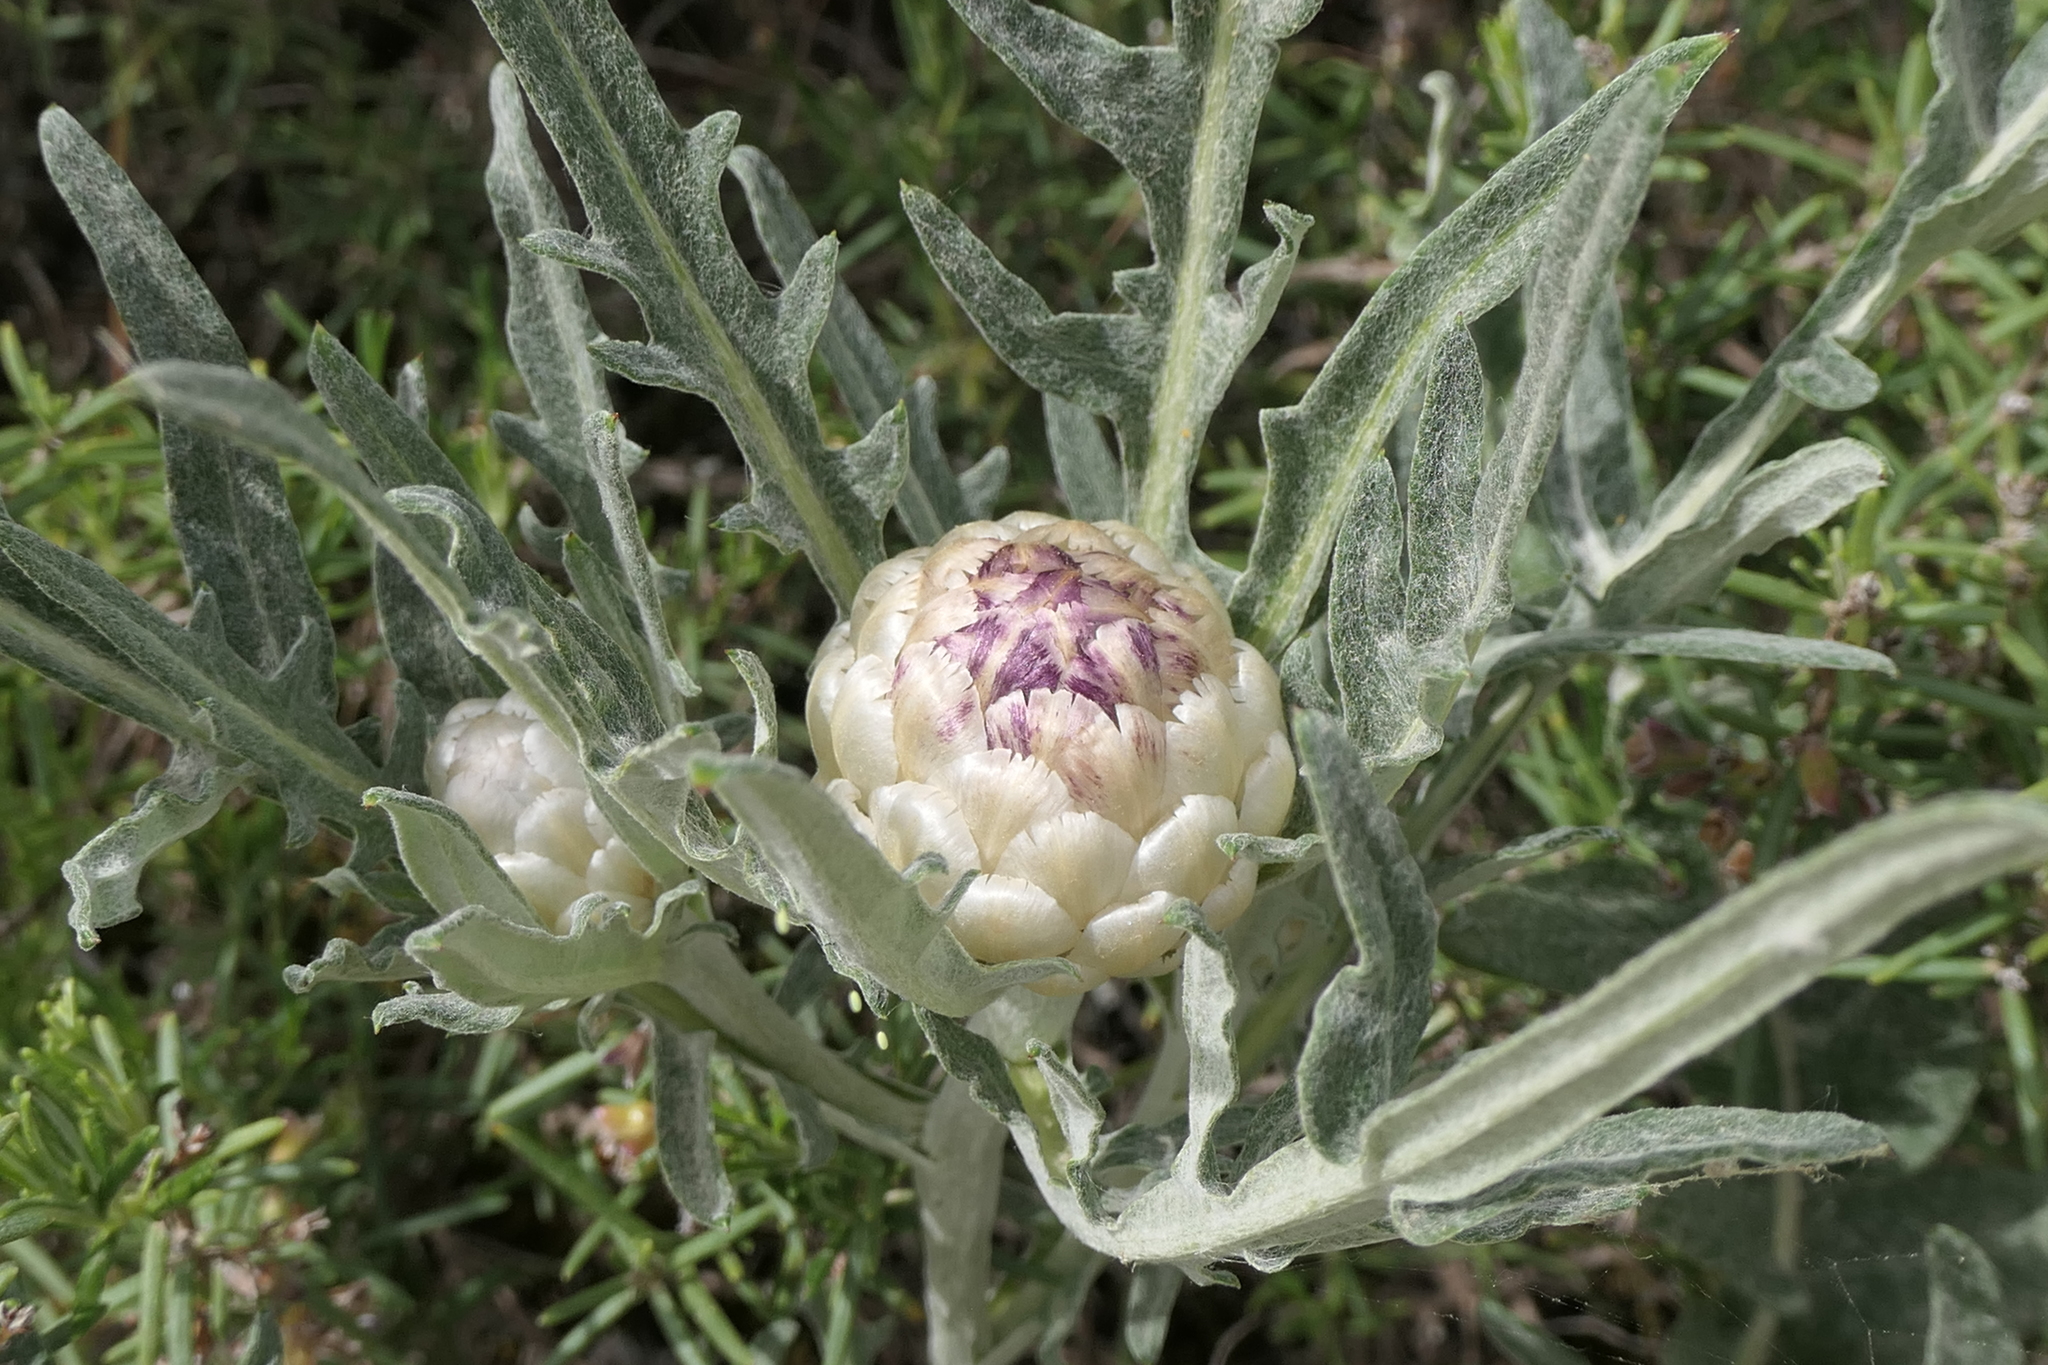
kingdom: Plantae
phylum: Tracheophyta
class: Magnoliopsida
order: Asterales
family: Asteraceae
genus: Leuzea
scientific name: Leuzea conifera
